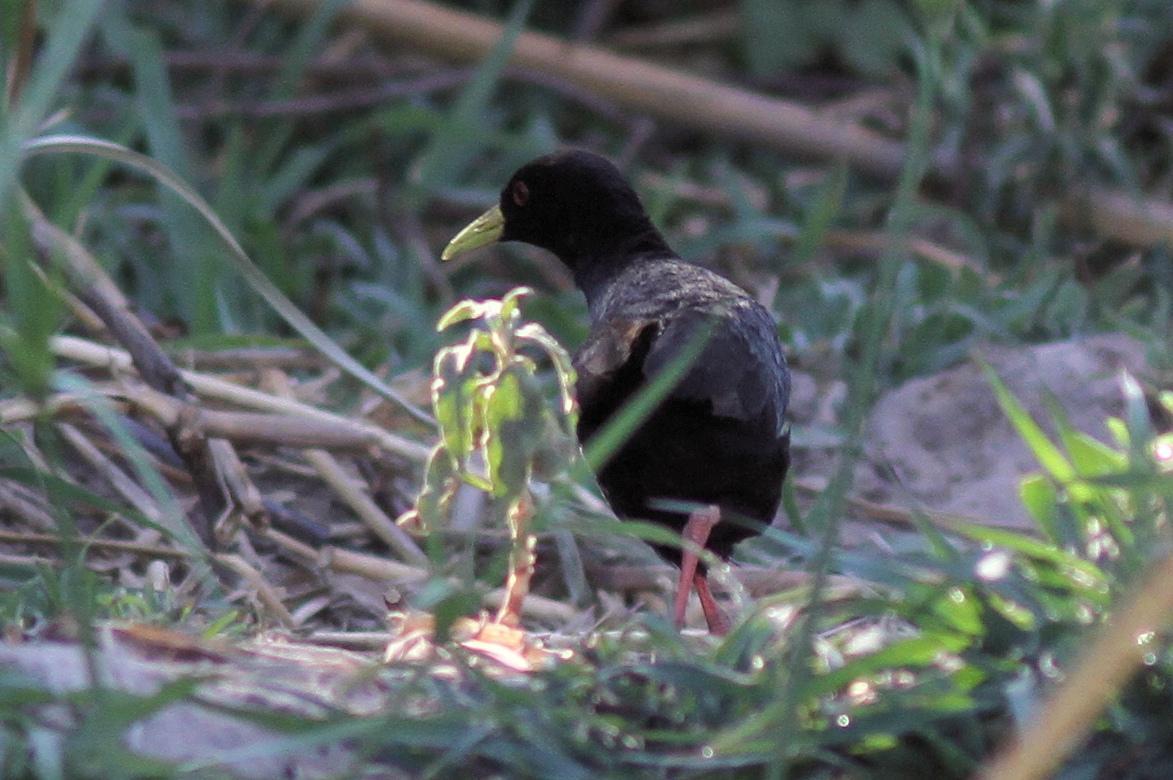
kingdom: Animalia
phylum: Chordata
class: Aves
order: Gruiformes
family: Rallidae
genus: Amaurornis
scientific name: Amaurornis flavirostra
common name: Black crake
